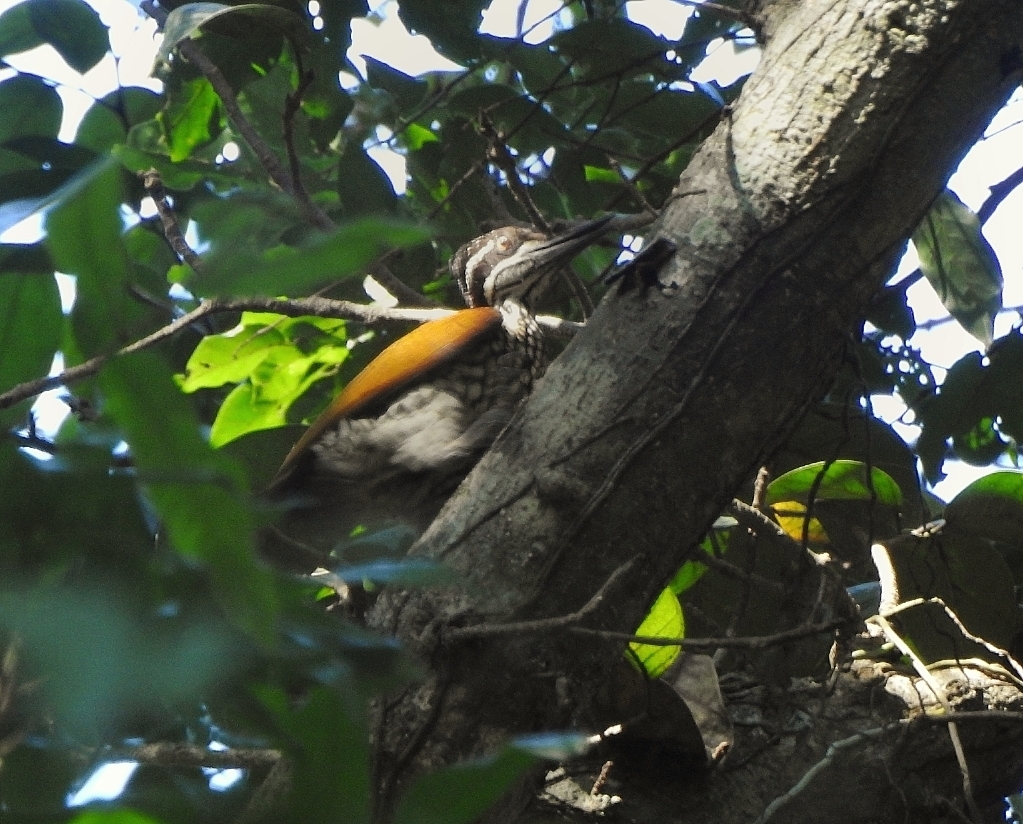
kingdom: Animalia
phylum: Chordata
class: Aves
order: Piciformes
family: Picidae
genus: Chrysocolaptes
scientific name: Chrysocolaptes socialis
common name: Malabar flameback
